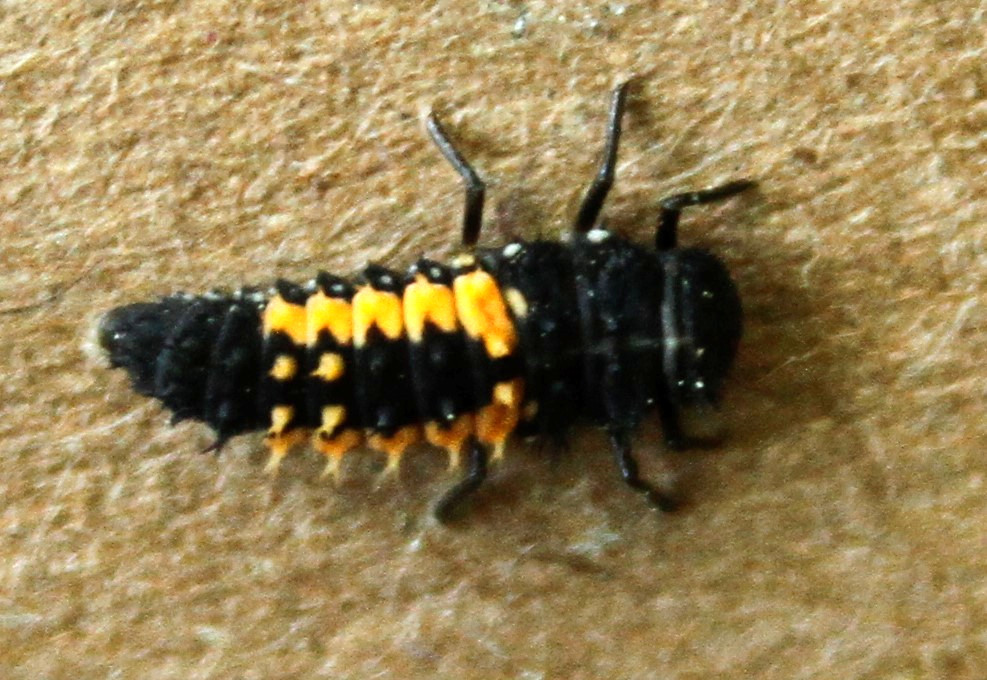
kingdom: Animalia
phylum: Arthropoda
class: Insecta
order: Coleoptera
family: Coccinellidae
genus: Harmonia
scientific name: Harmonia axyridis
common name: Harlequin ladybird
